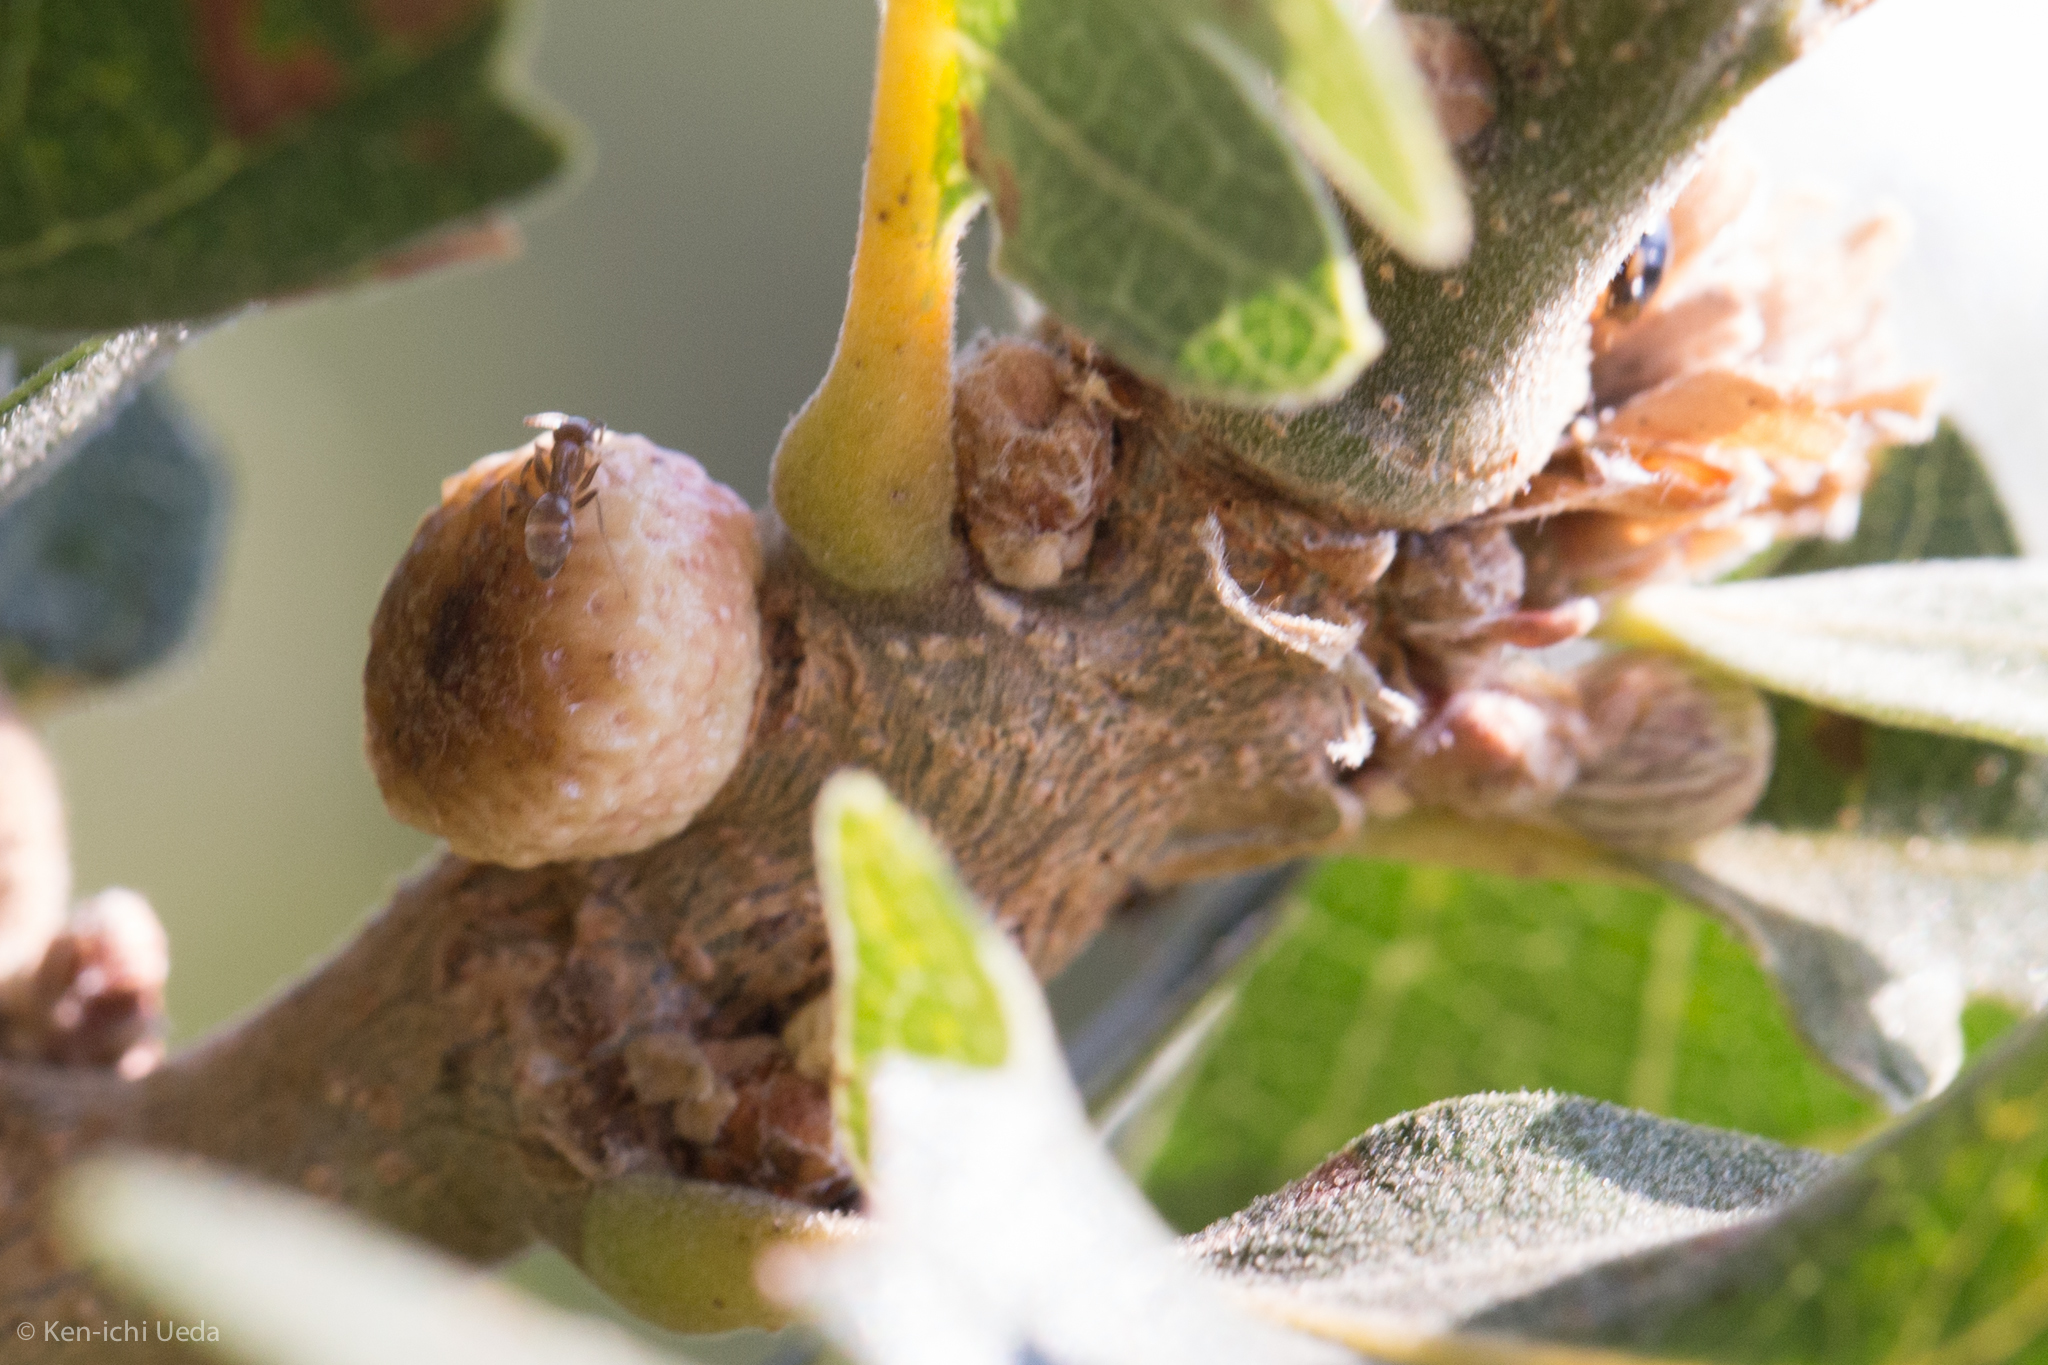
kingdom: Animalia
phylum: Arthropoda
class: Insecta
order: Hymenoptera
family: Cynipidae
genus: Disholcaspis
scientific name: Disholcaspis
